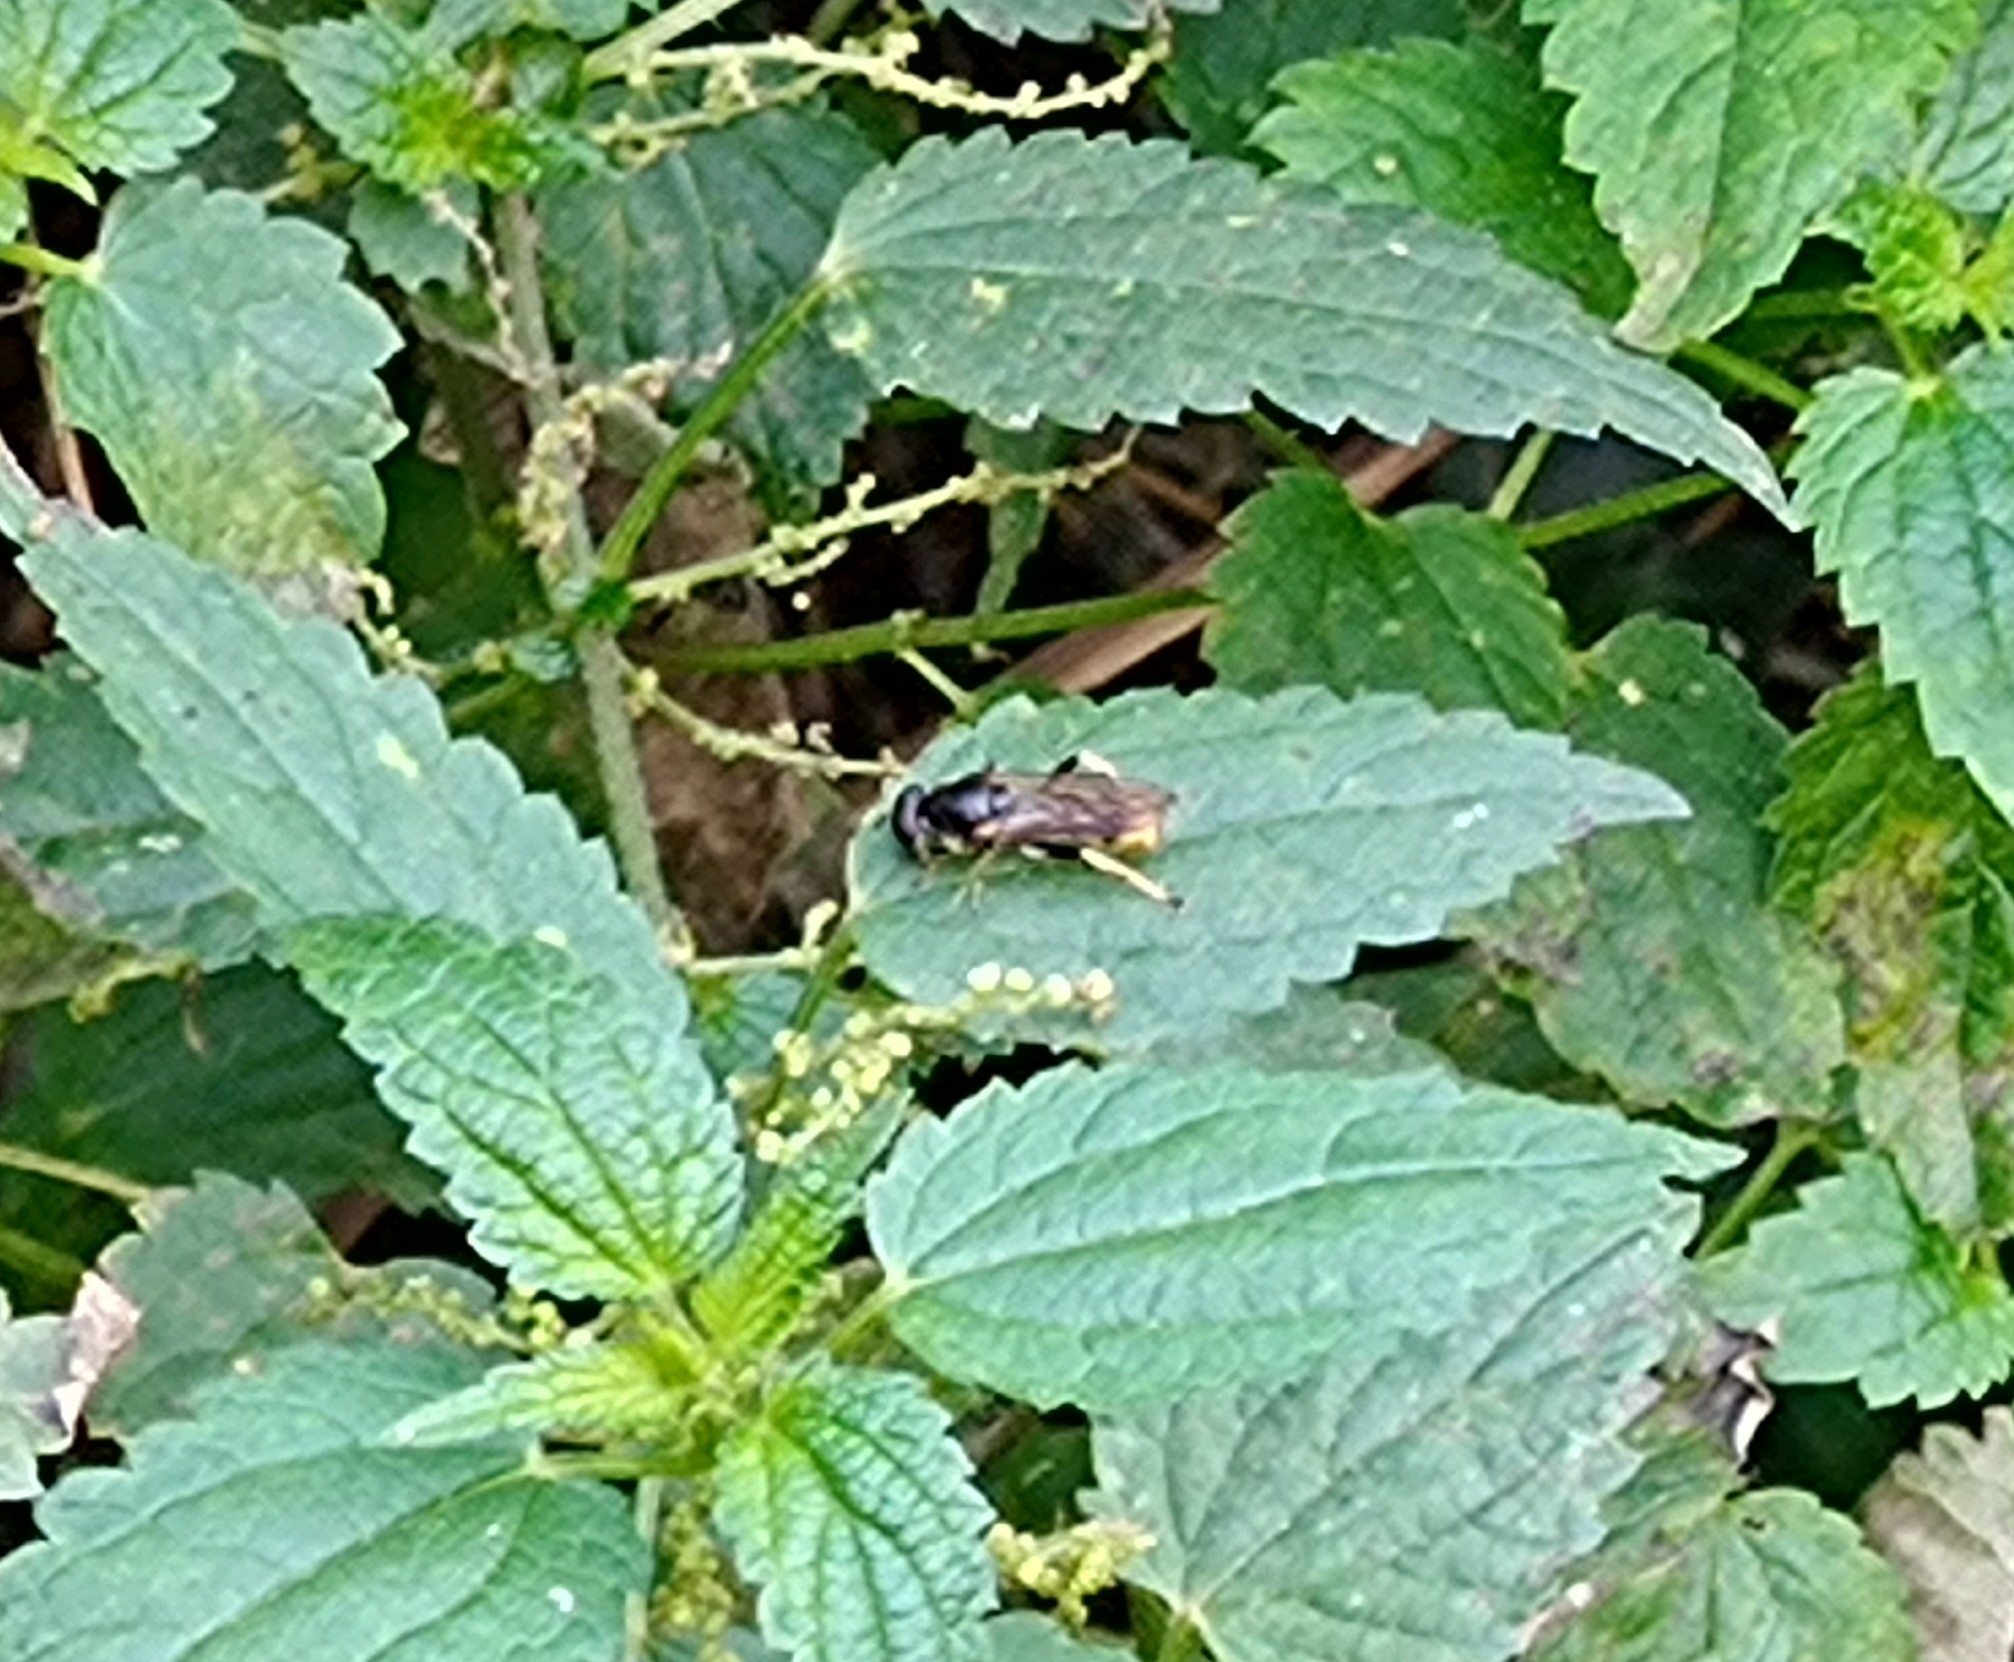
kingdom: Animalia
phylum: Arthropoda
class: Insecta
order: Diptera
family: Syrphidae
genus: Xylota
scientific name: Xylota sylvarum
